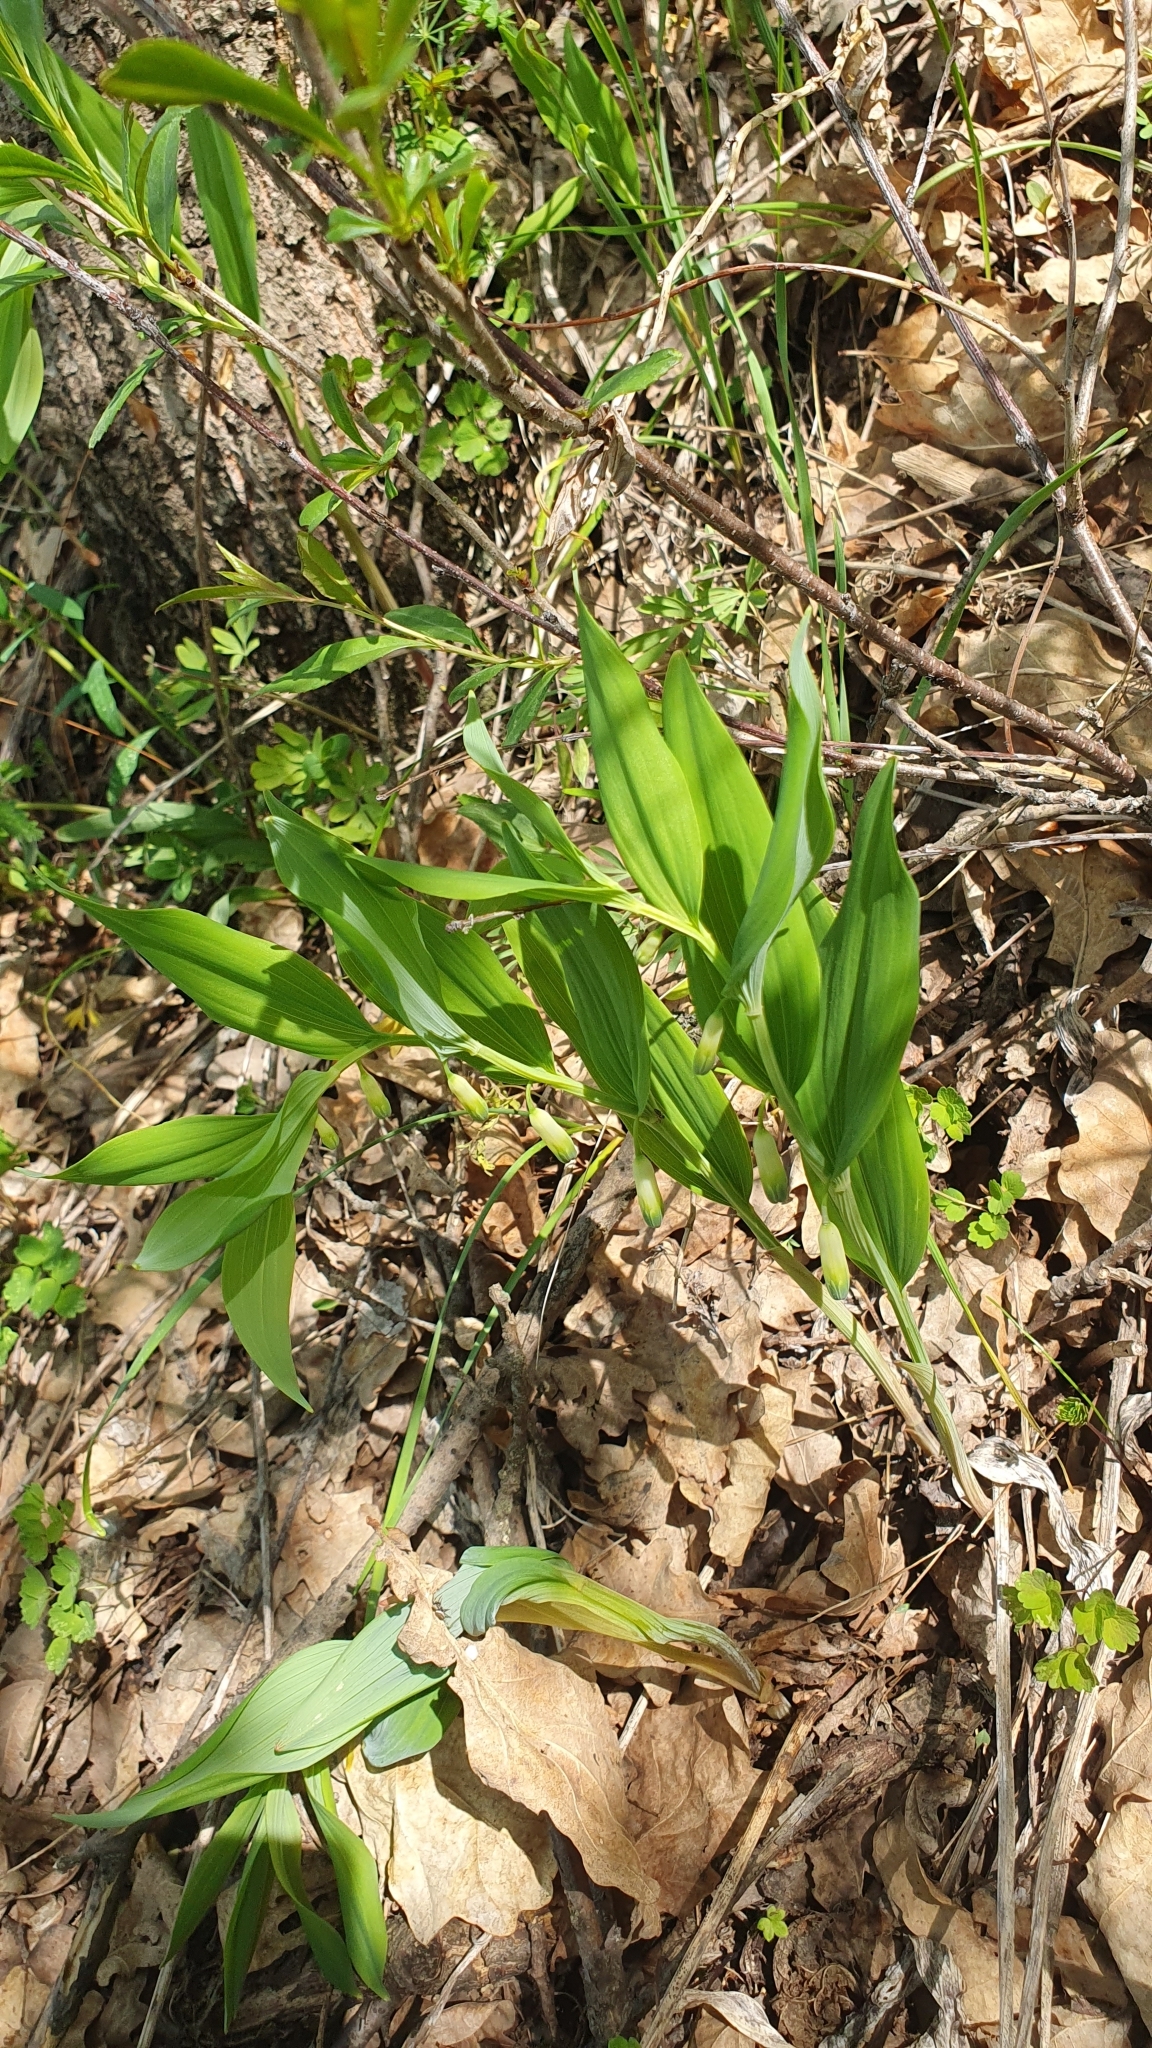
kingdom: Plantae
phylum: Tracheophyta
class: Liliopsida
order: Asparagales
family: Asparagaceae
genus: Polygonatum
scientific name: Polygonatum odoratum
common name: Angular solomon's-seal
